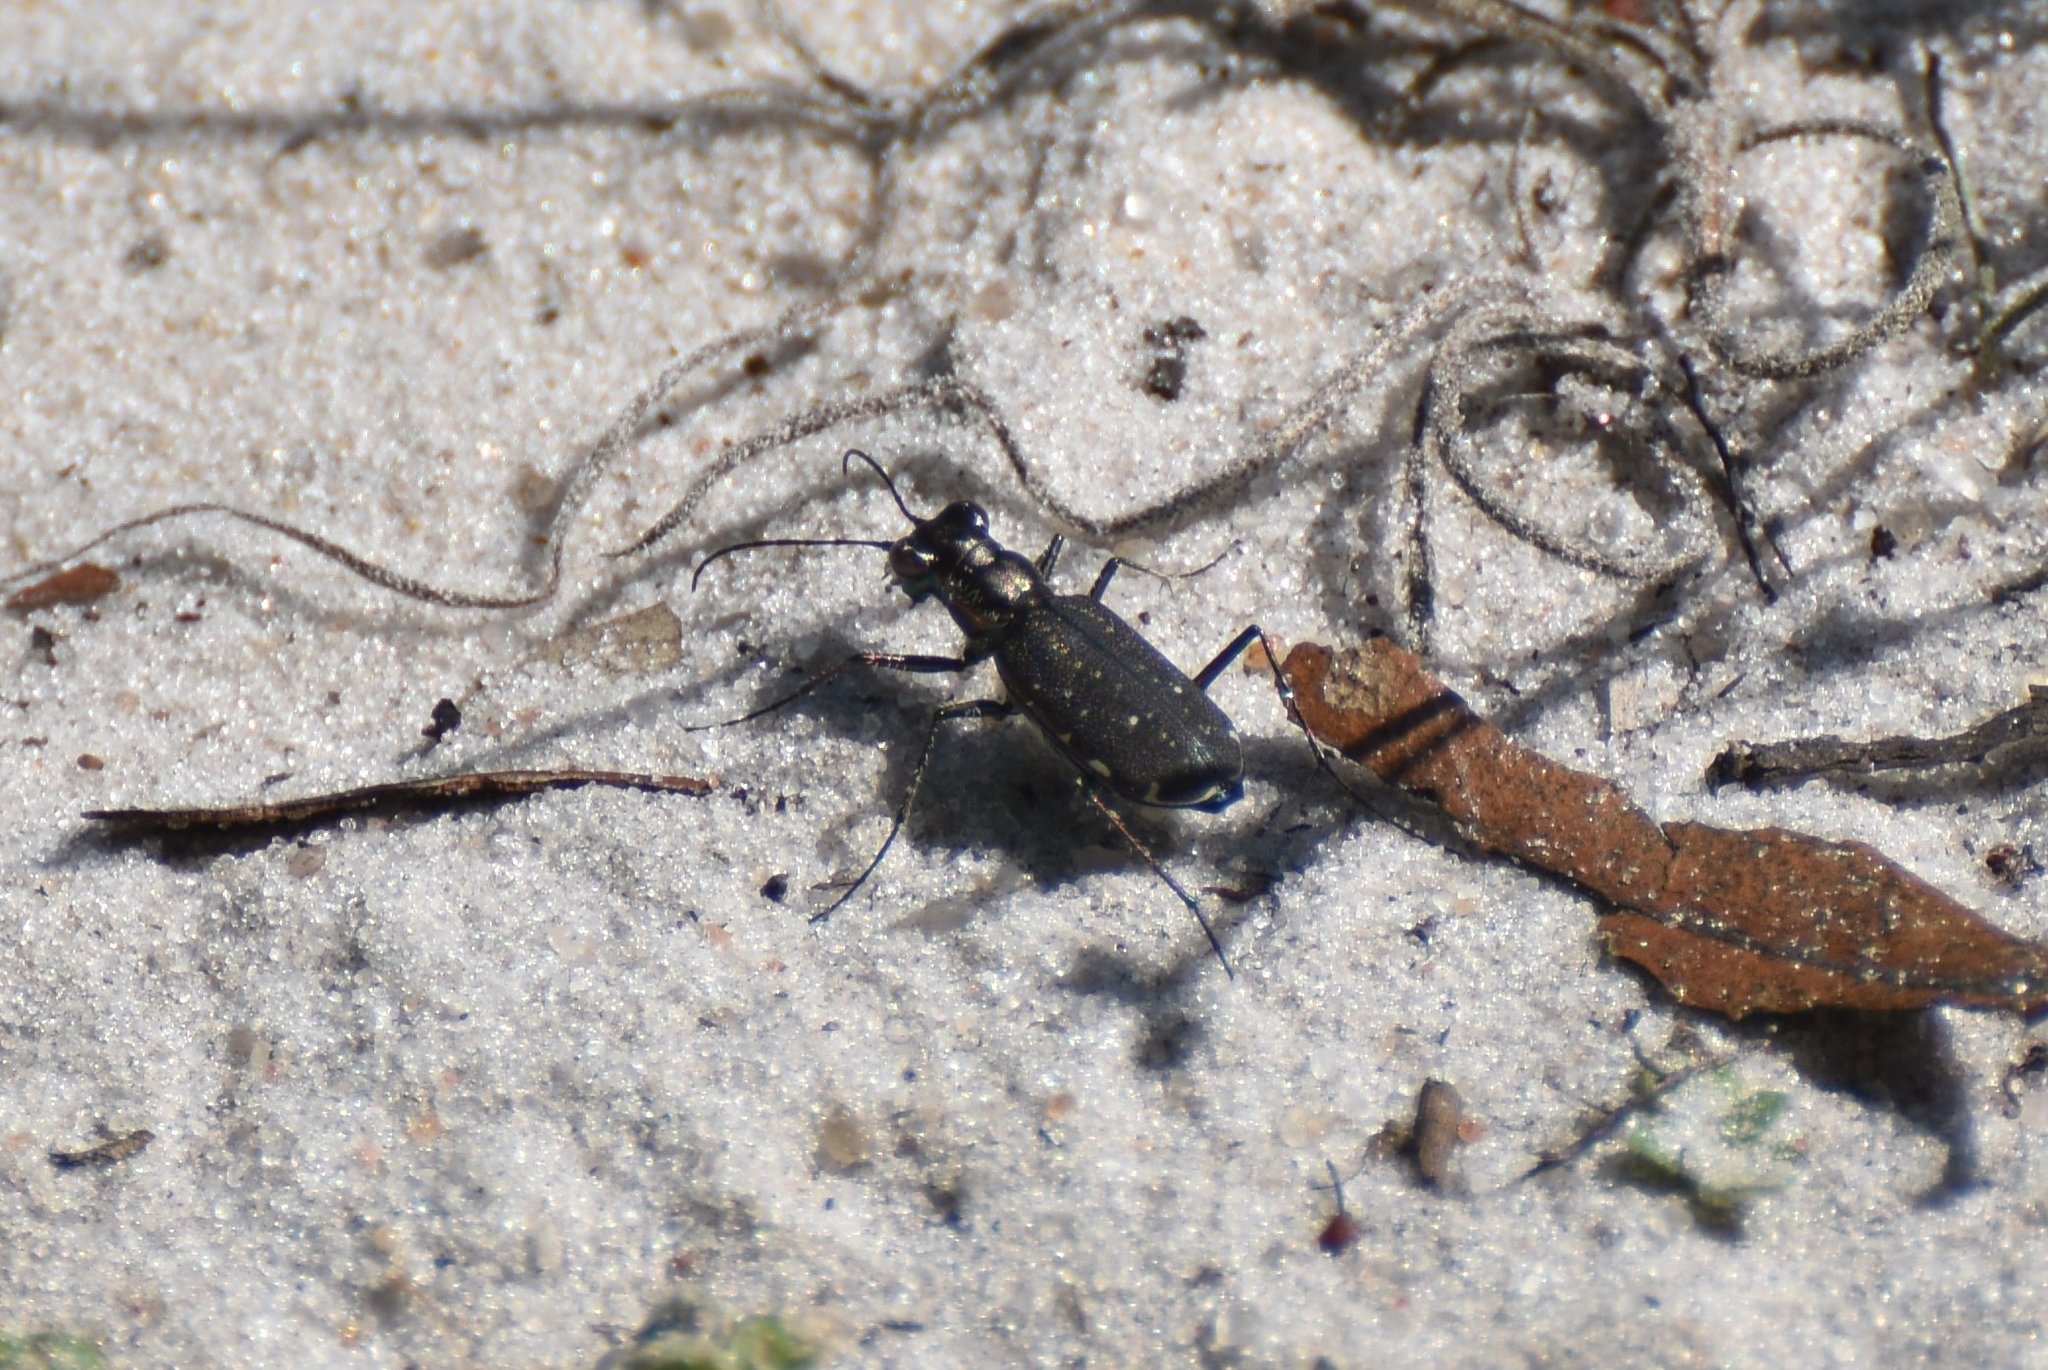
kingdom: Animalia
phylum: Arthropoda
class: Insecta
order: Coleoptera
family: Carabidae
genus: Cicindela
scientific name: Cicindela punctulata
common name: Punctured tiger beetle
